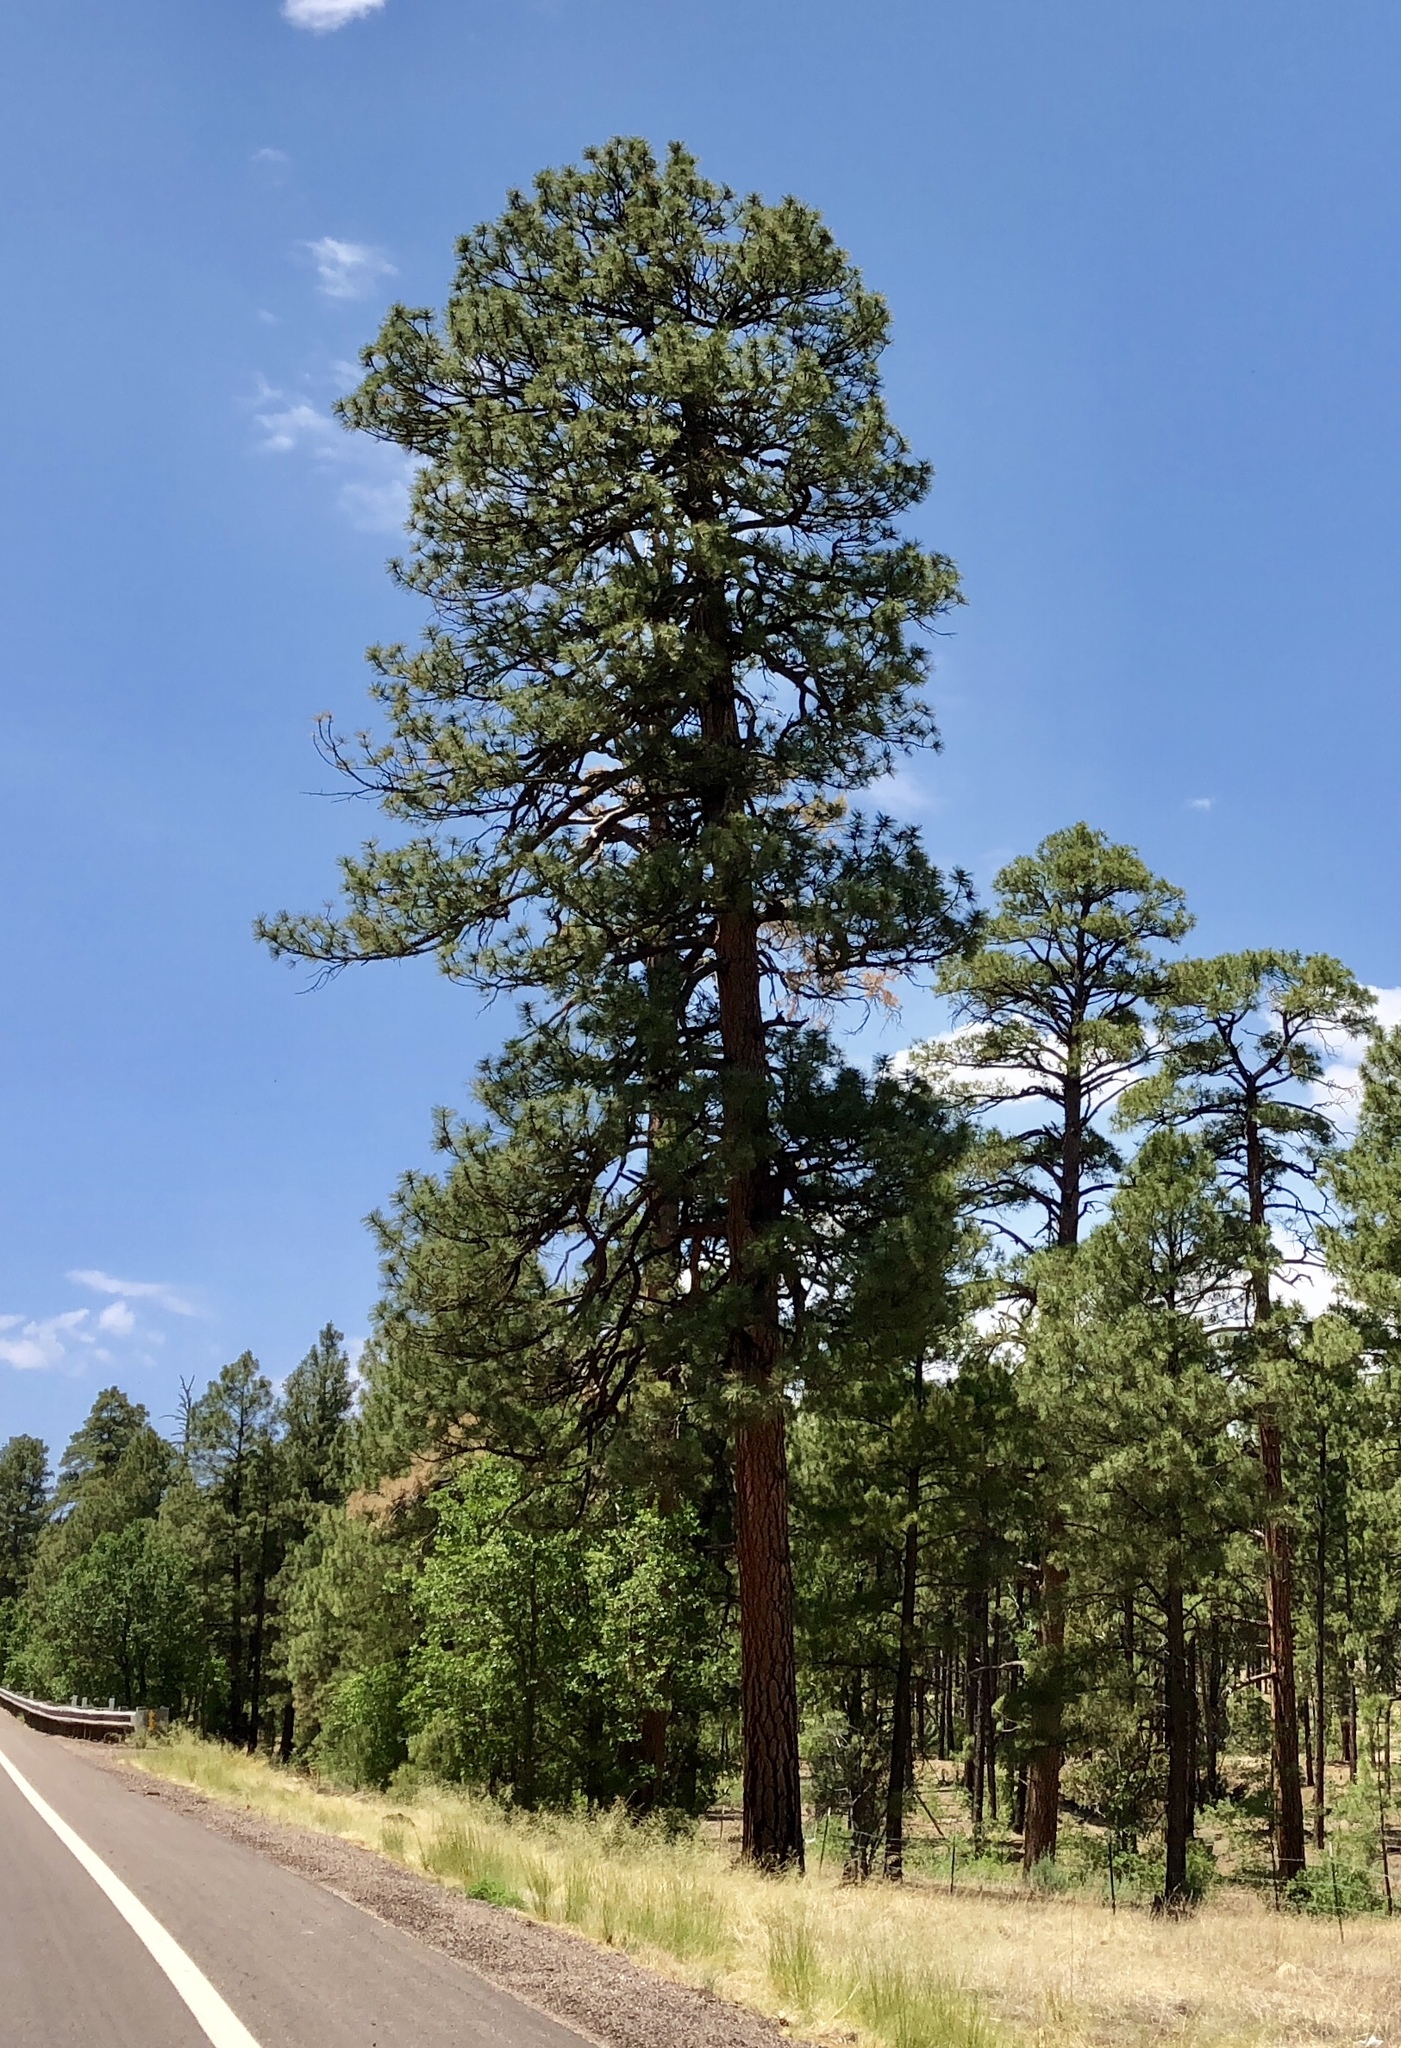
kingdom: Plantae
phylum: Tracheophyta
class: Pinopsida
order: Pinales
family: Pinaceae
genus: Pinus
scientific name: Pinus ponderosa
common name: Western yellow-pine
